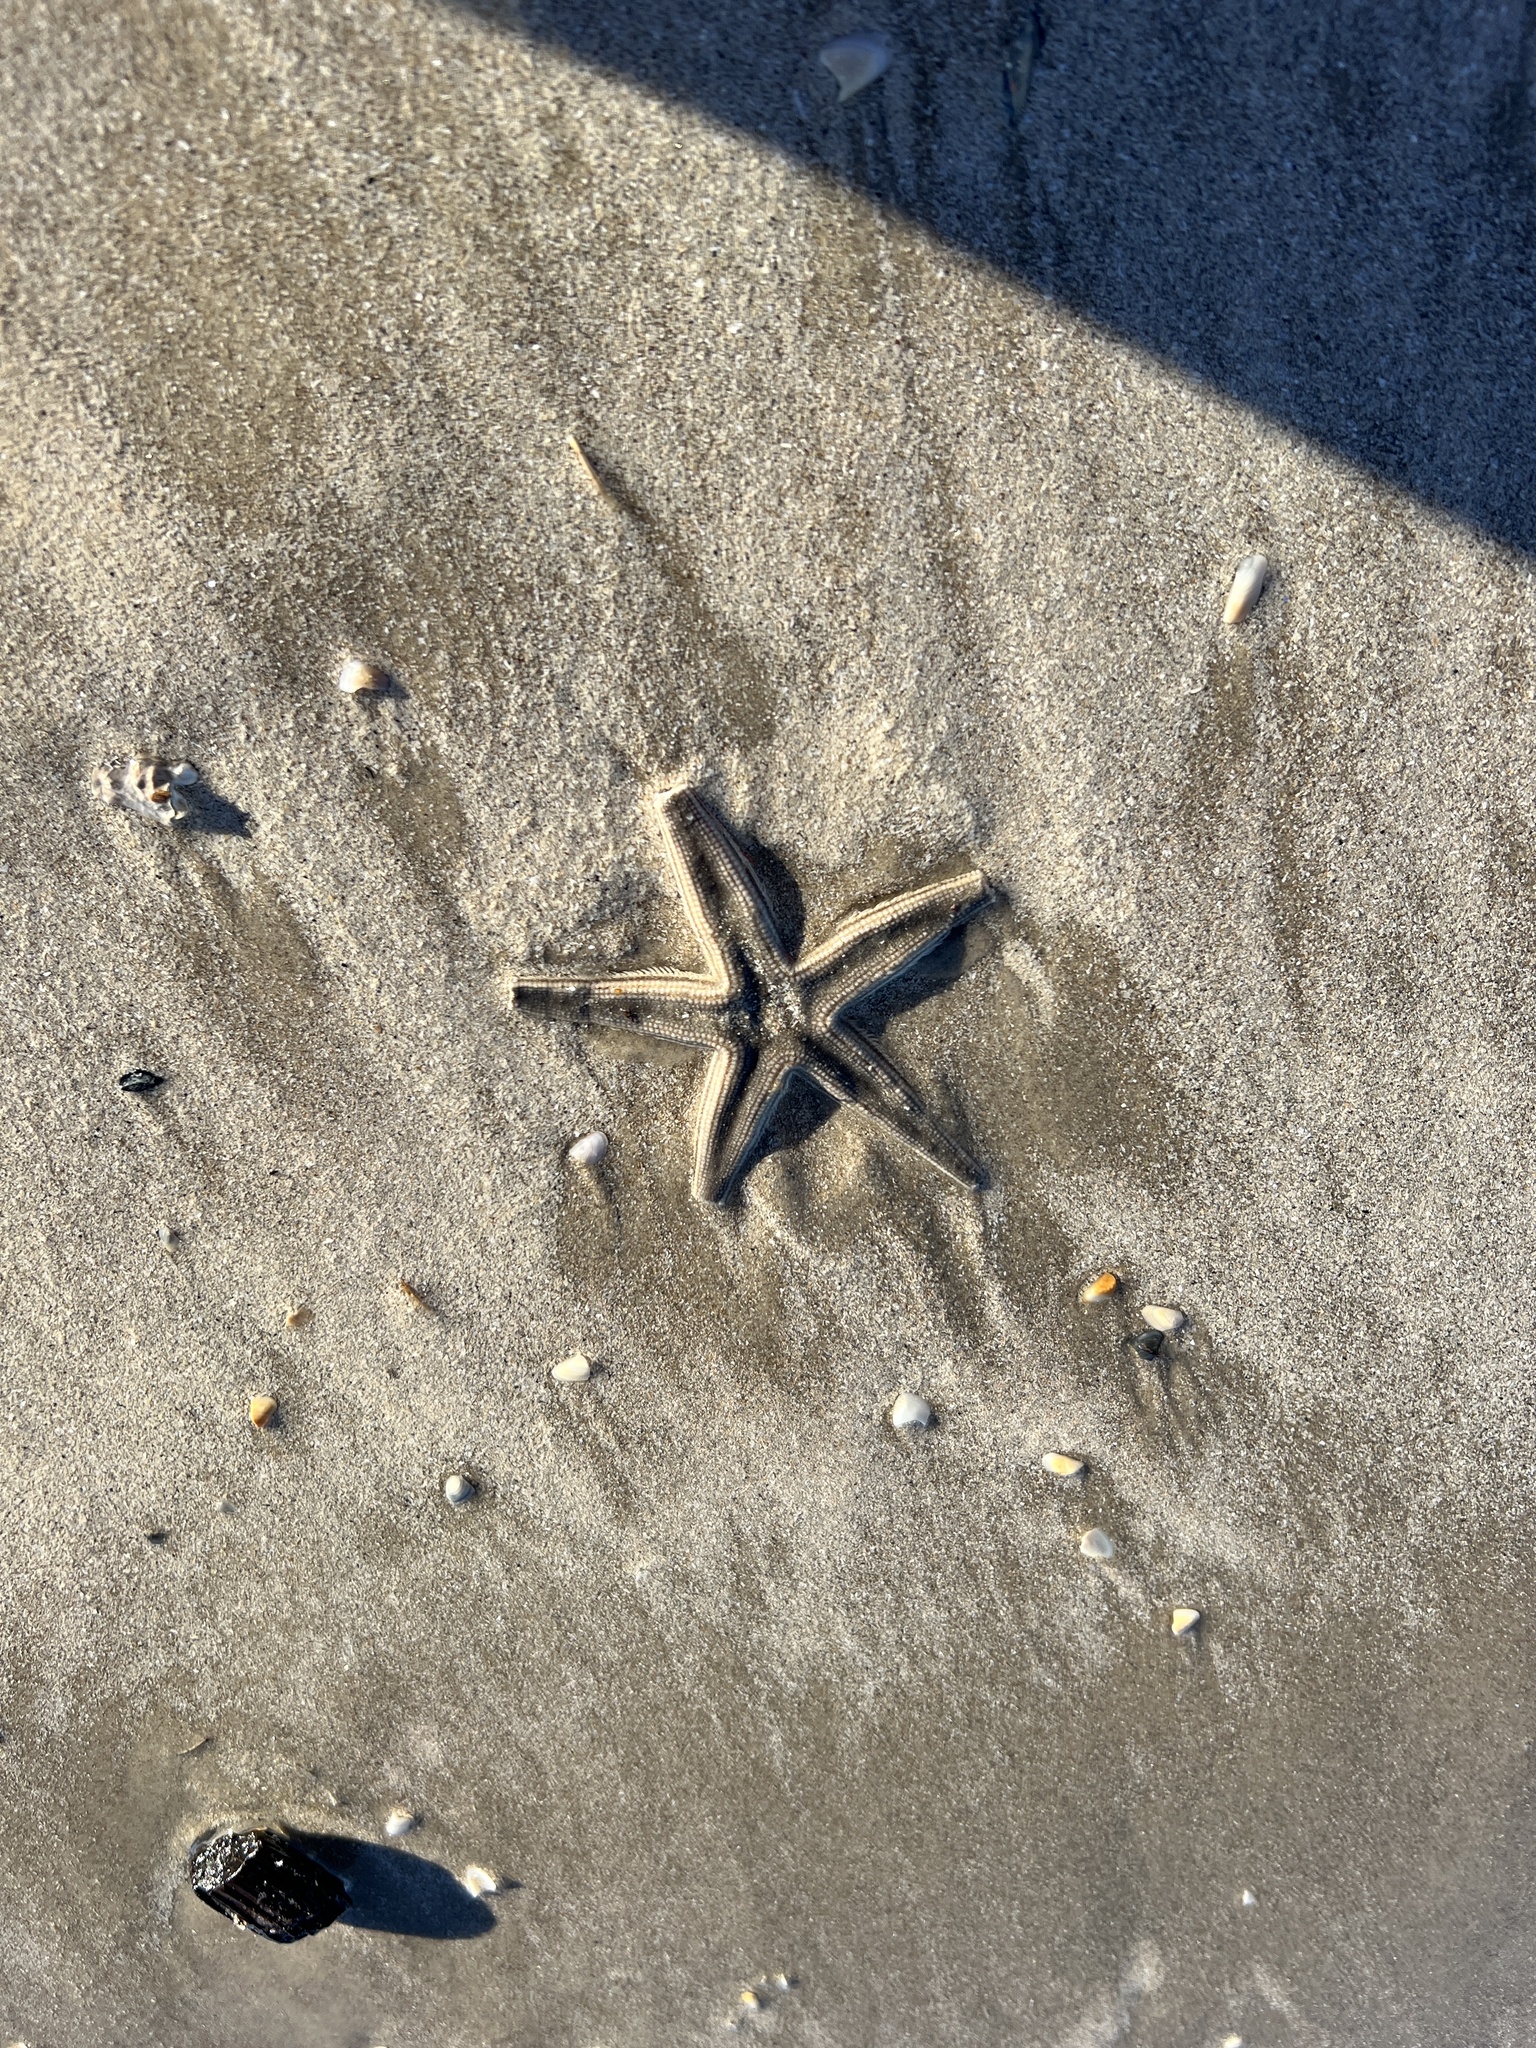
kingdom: Animalia
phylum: Echinodermata
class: Asteroidea
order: Paxillosida
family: Luidiidae
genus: Luidia
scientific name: Luidia clathrata
